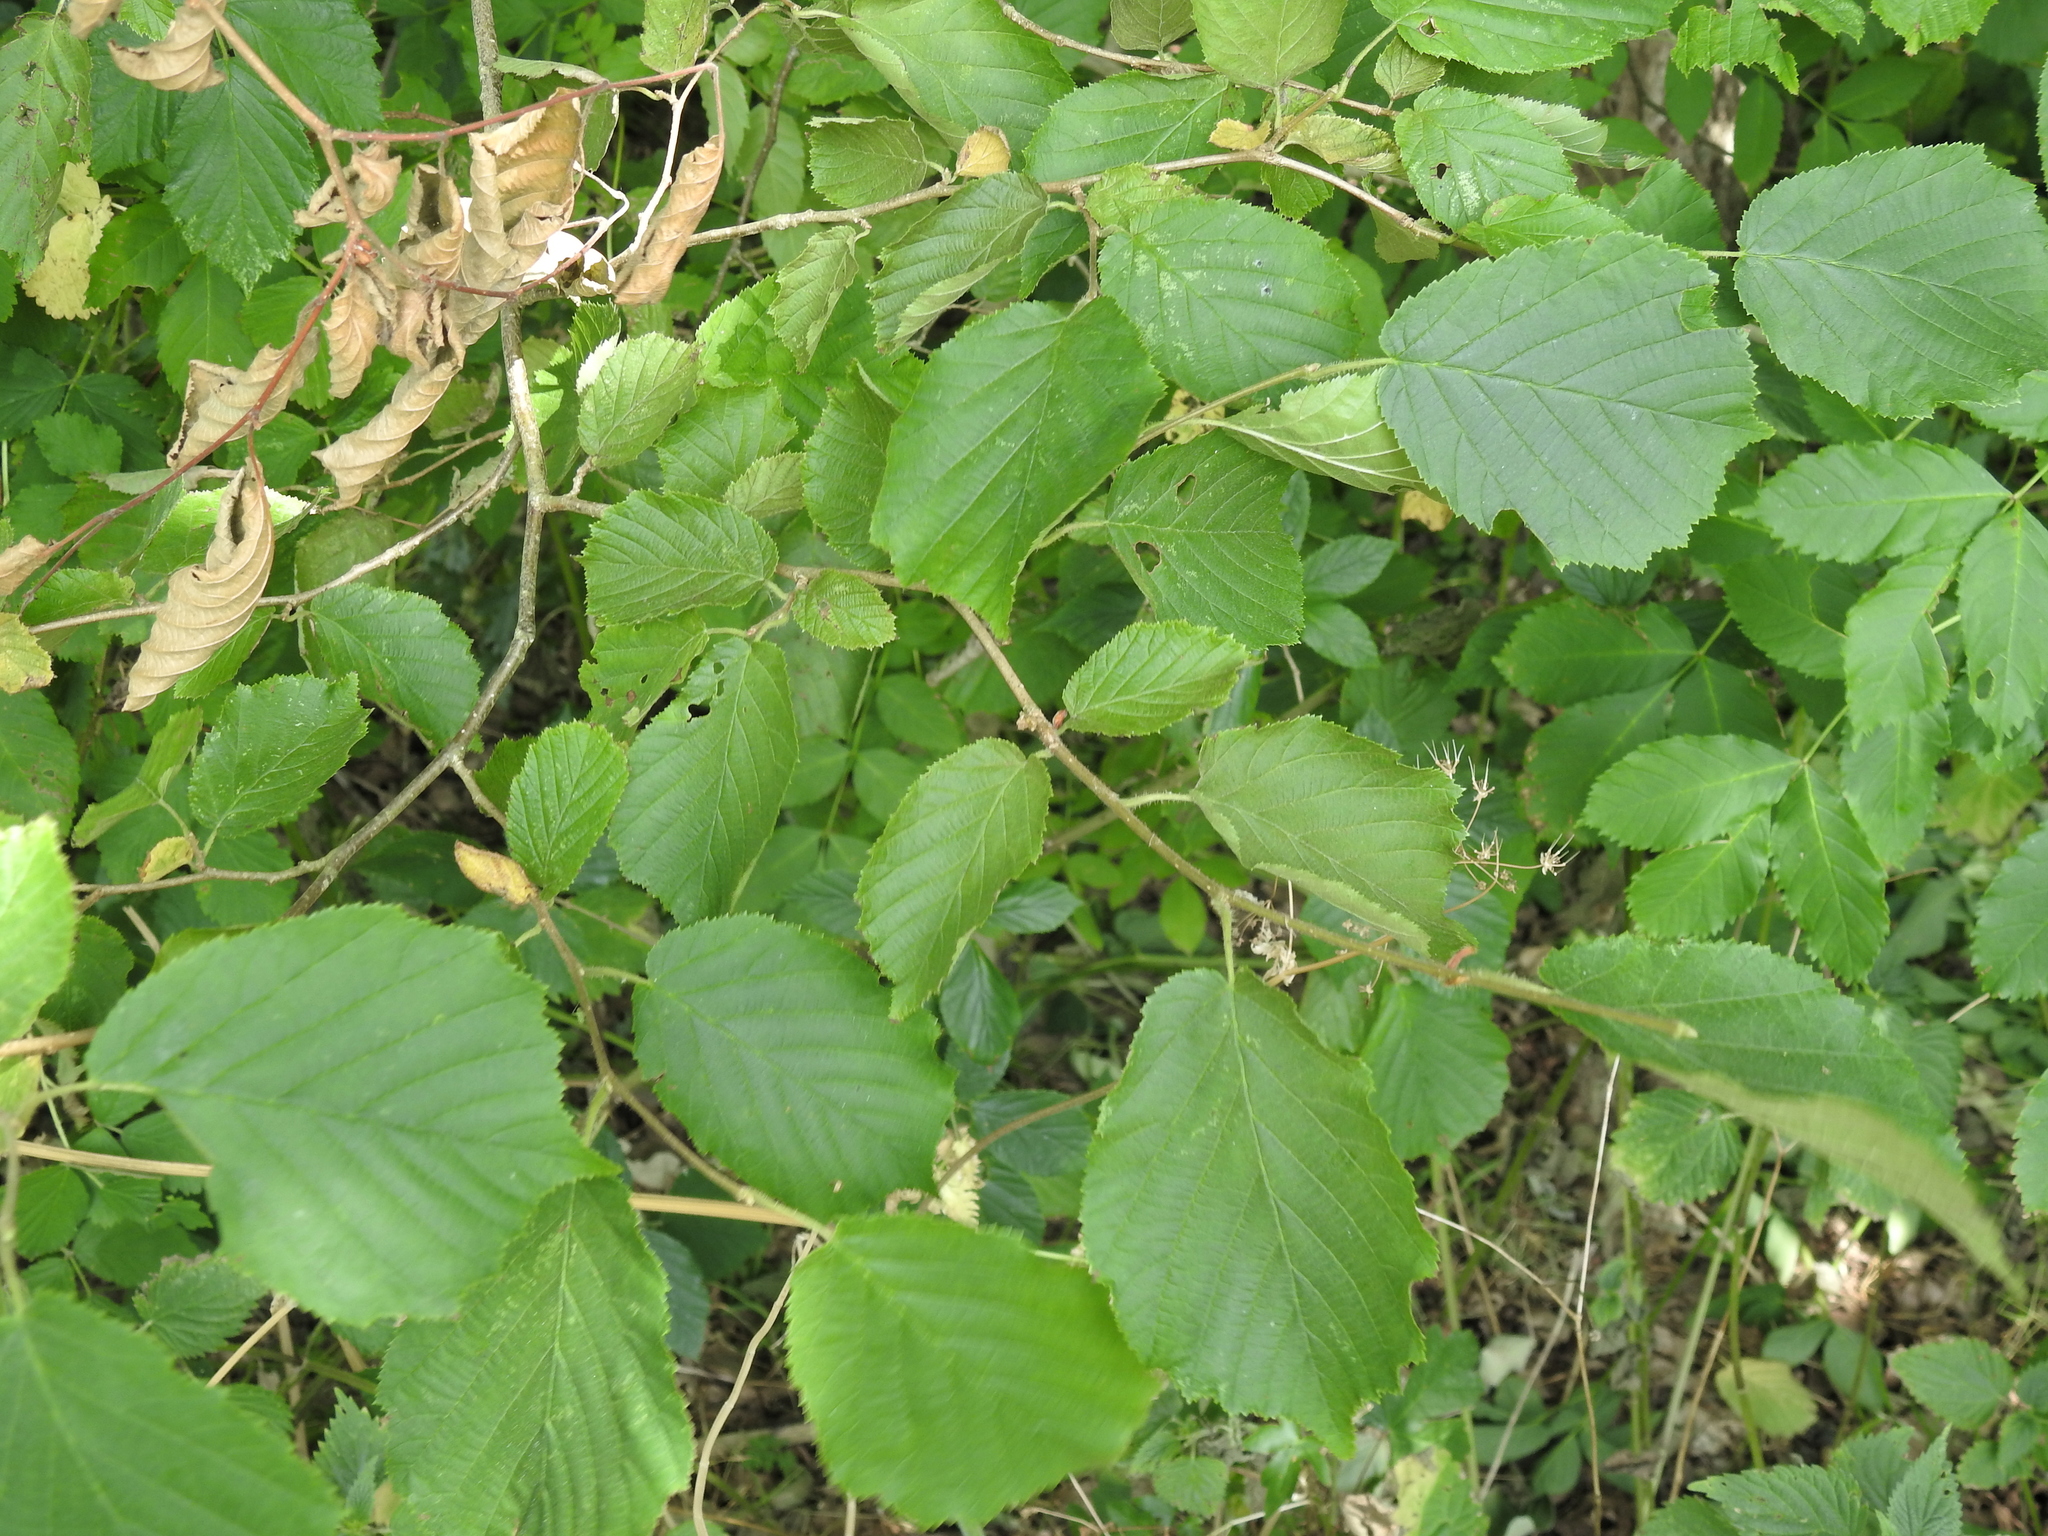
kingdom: Plantae
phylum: Tracheophyta
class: Magnoliopsida
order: Fagales
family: Betulaceae
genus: Corylus
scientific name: Corylus avellana
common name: European hazel
